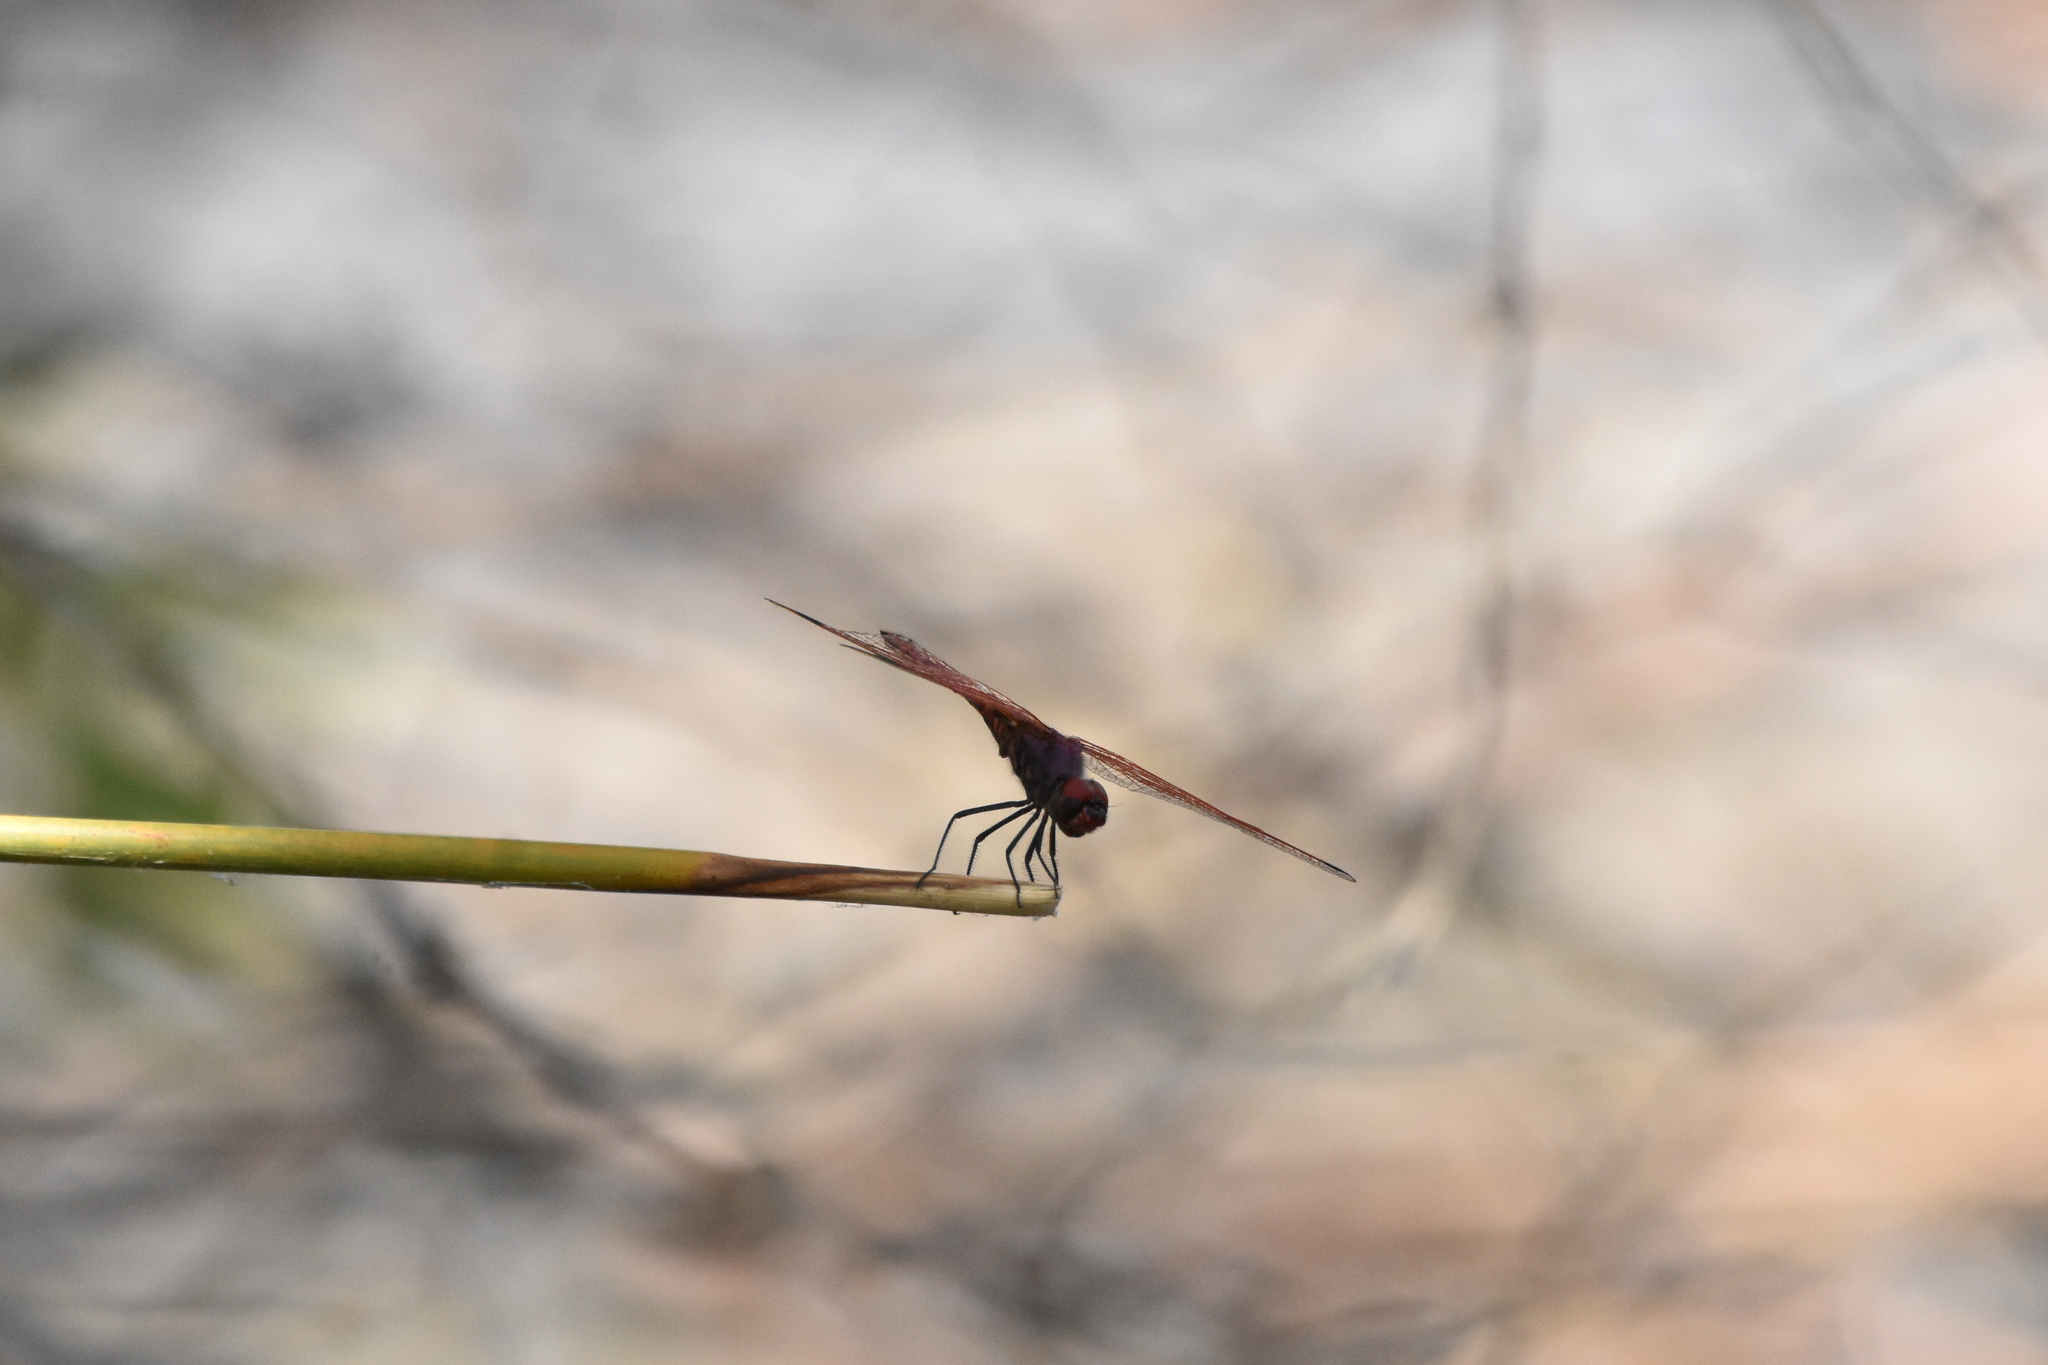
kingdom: Animalia
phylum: Arthropoda
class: Insecta
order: Odonata
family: Libellulidae
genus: Trithemis
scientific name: Trithemis annulata
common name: Violet dropwing
